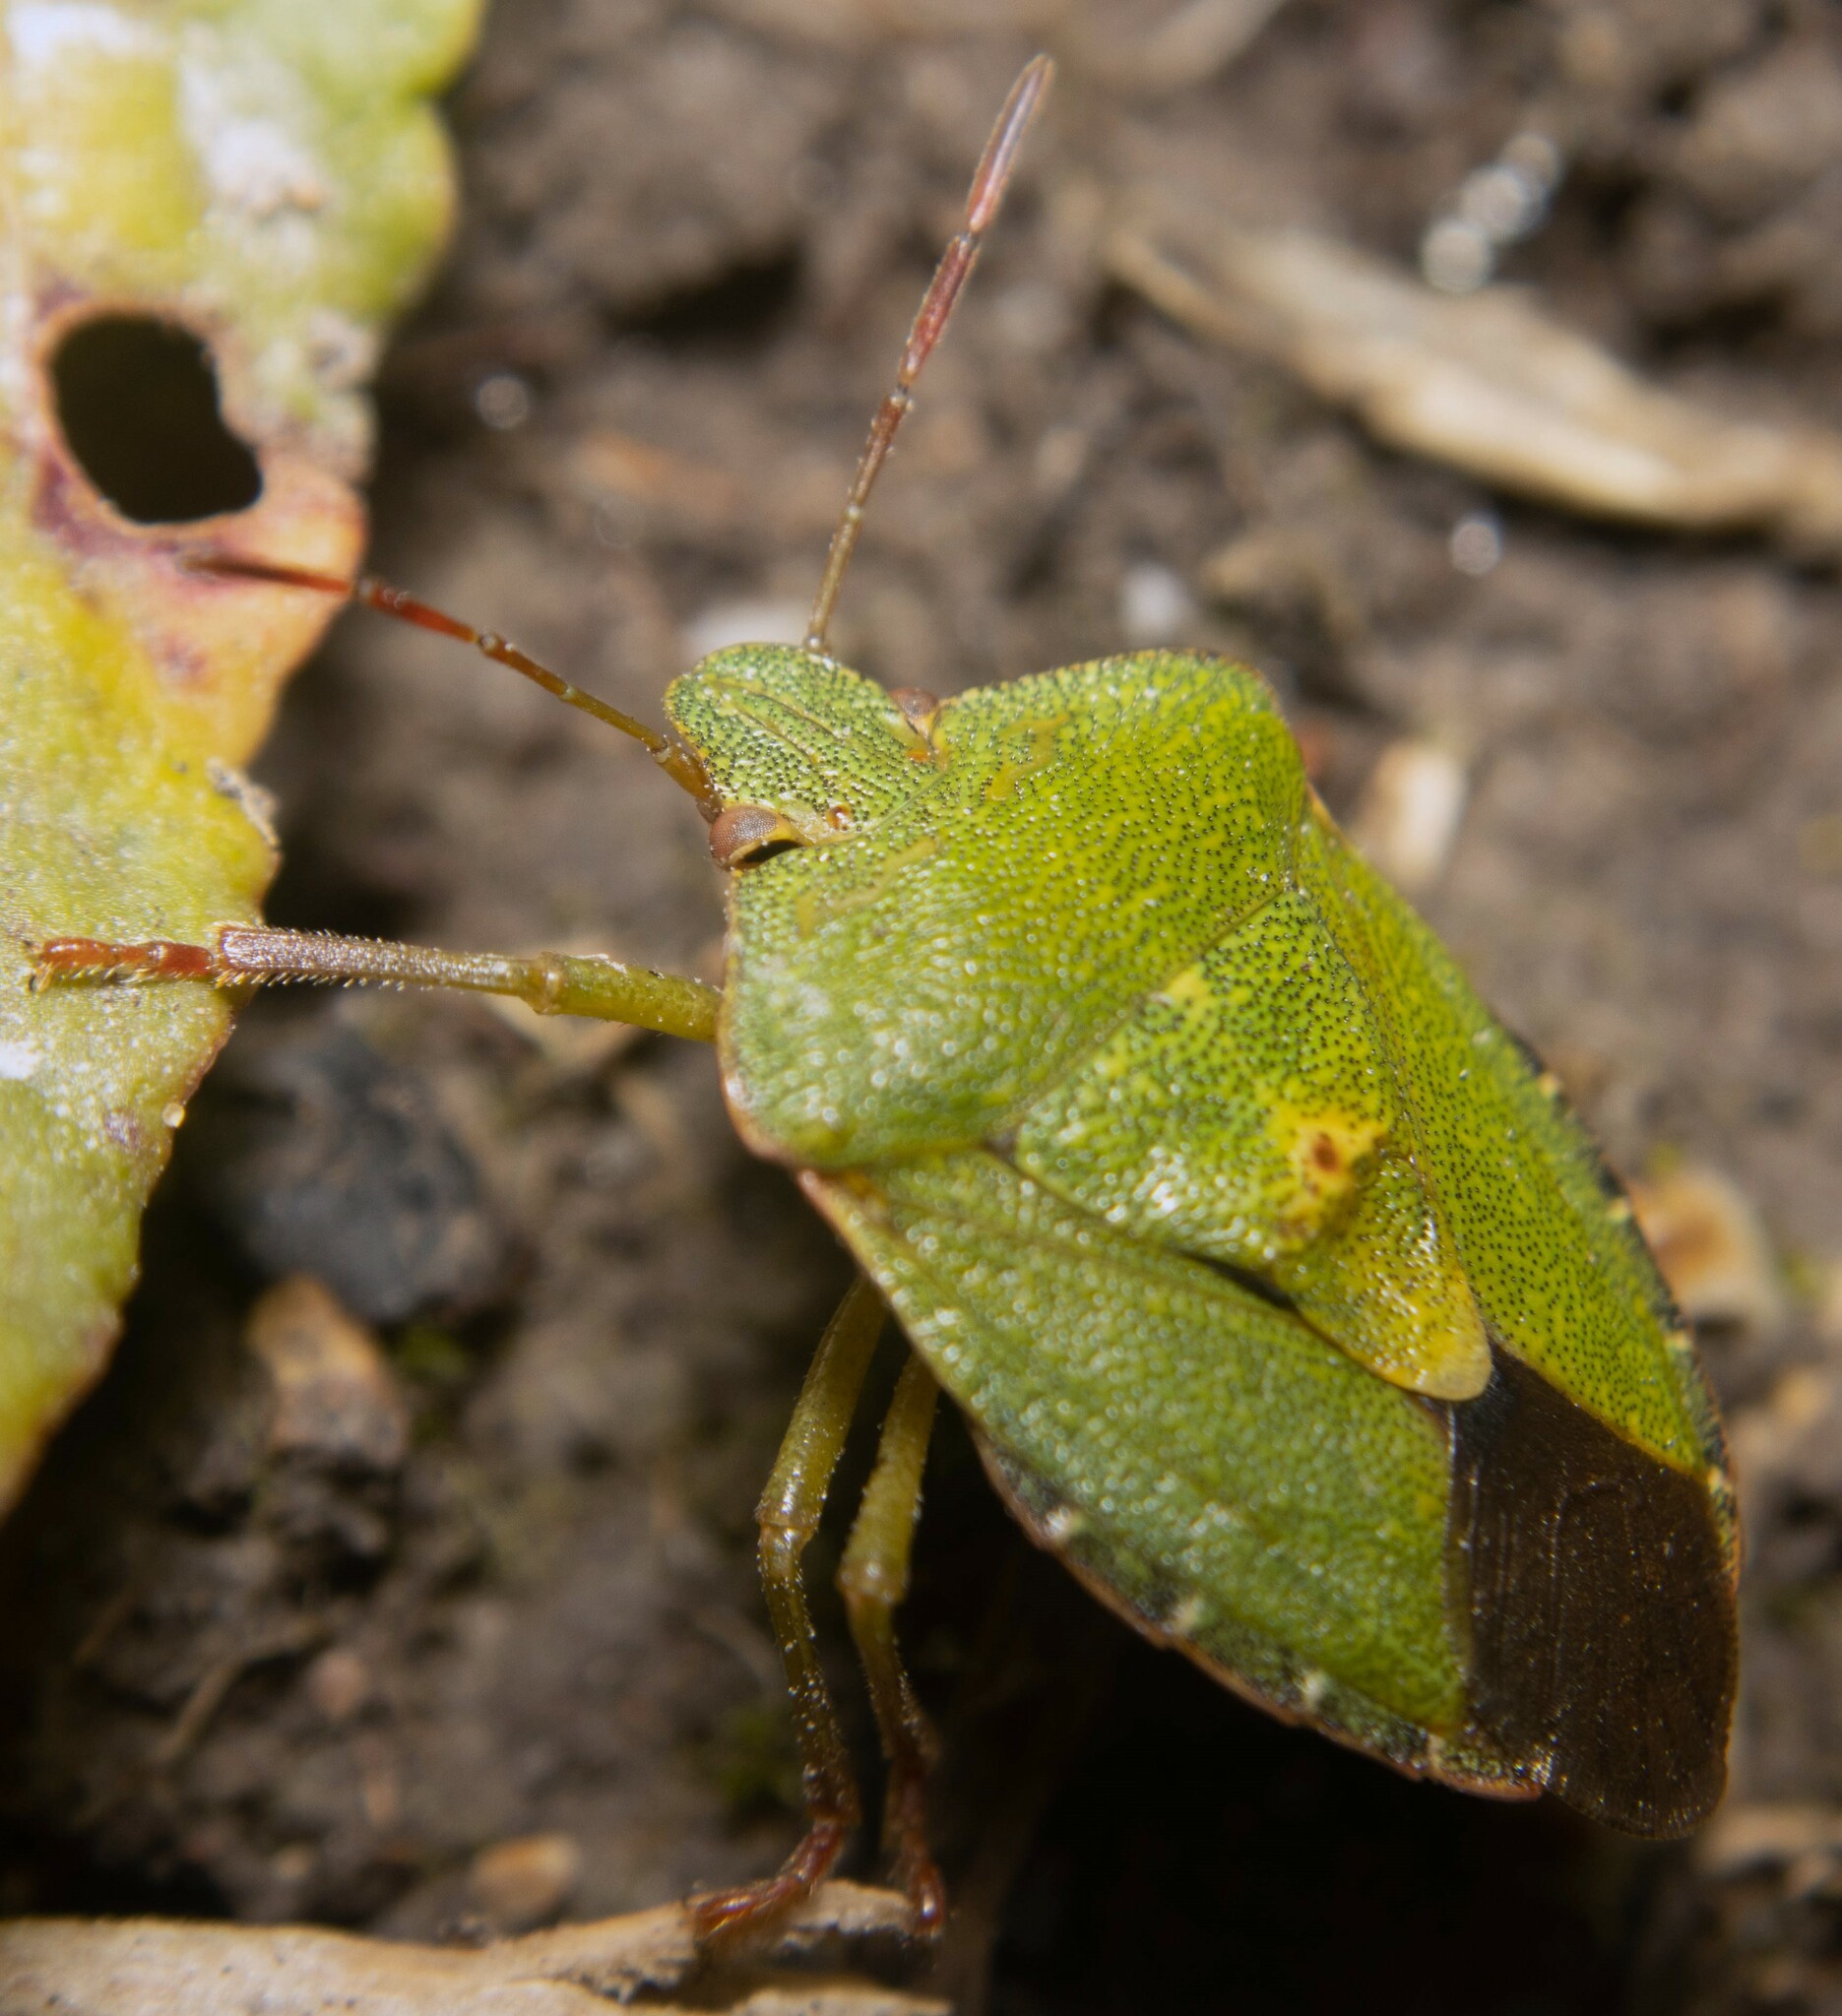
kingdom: Animalia
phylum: Arthropoda
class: Insecta
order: Hemiptera
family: Pentatomidae
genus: Palomena
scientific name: Palomena prasina
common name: Green shieldbug
